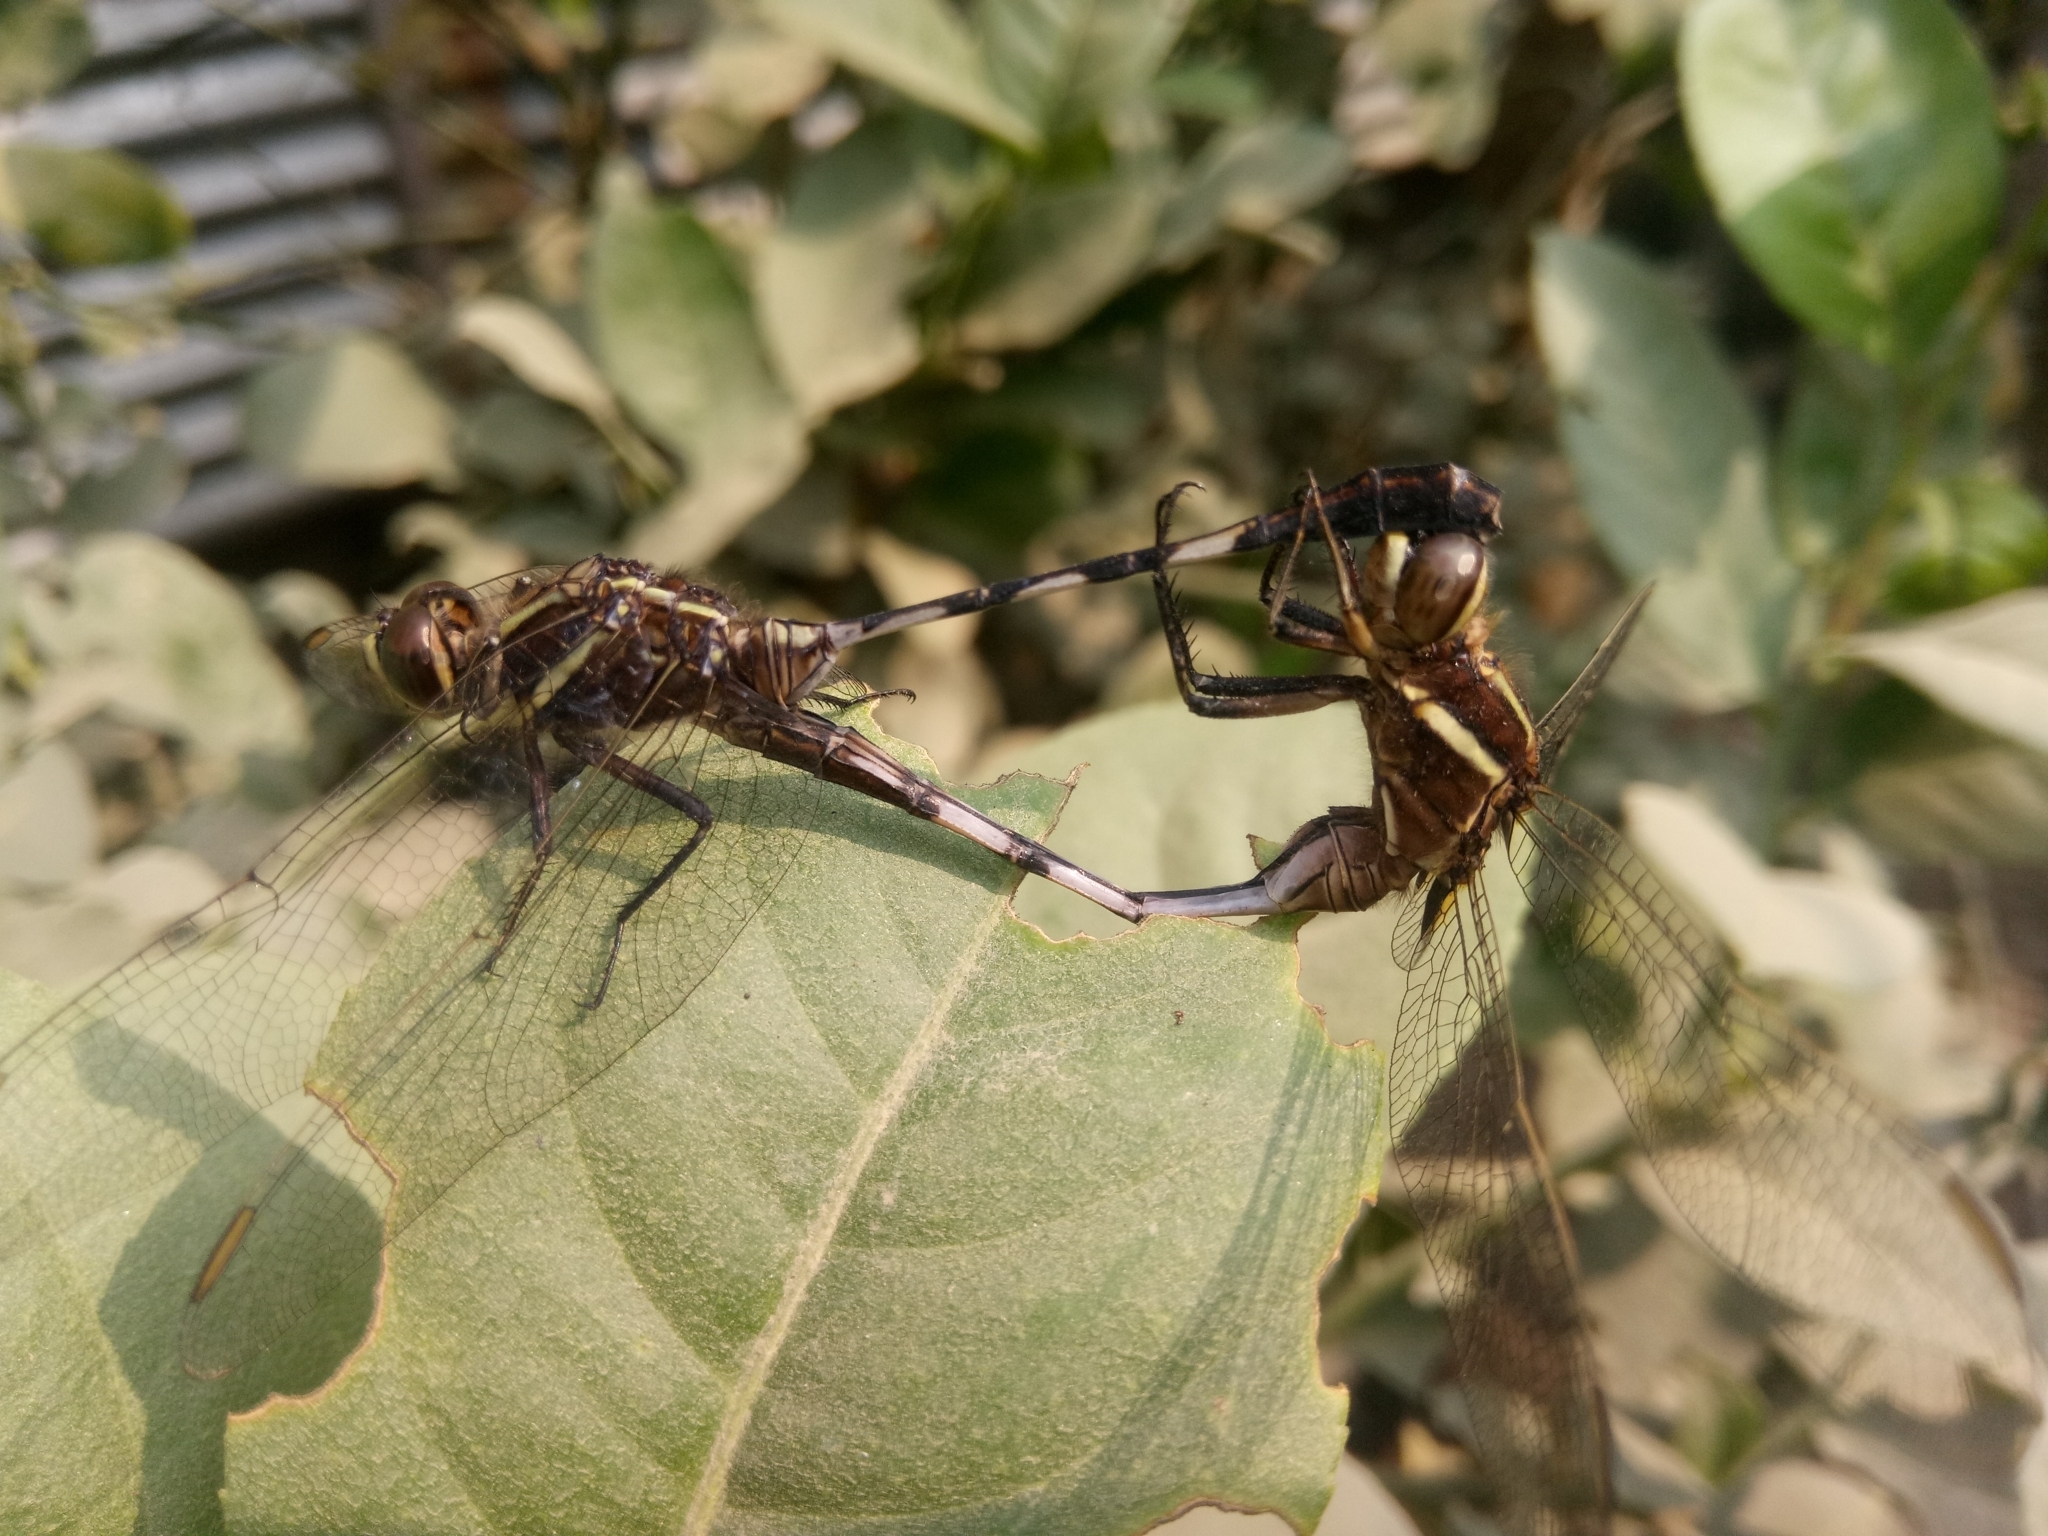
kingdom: Animalia
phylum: Arthropoda
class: Insecta
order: Odonata
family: Libellulidae
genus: Orthetrum
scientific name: Orthetrum sabina
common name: Slender skimmer
